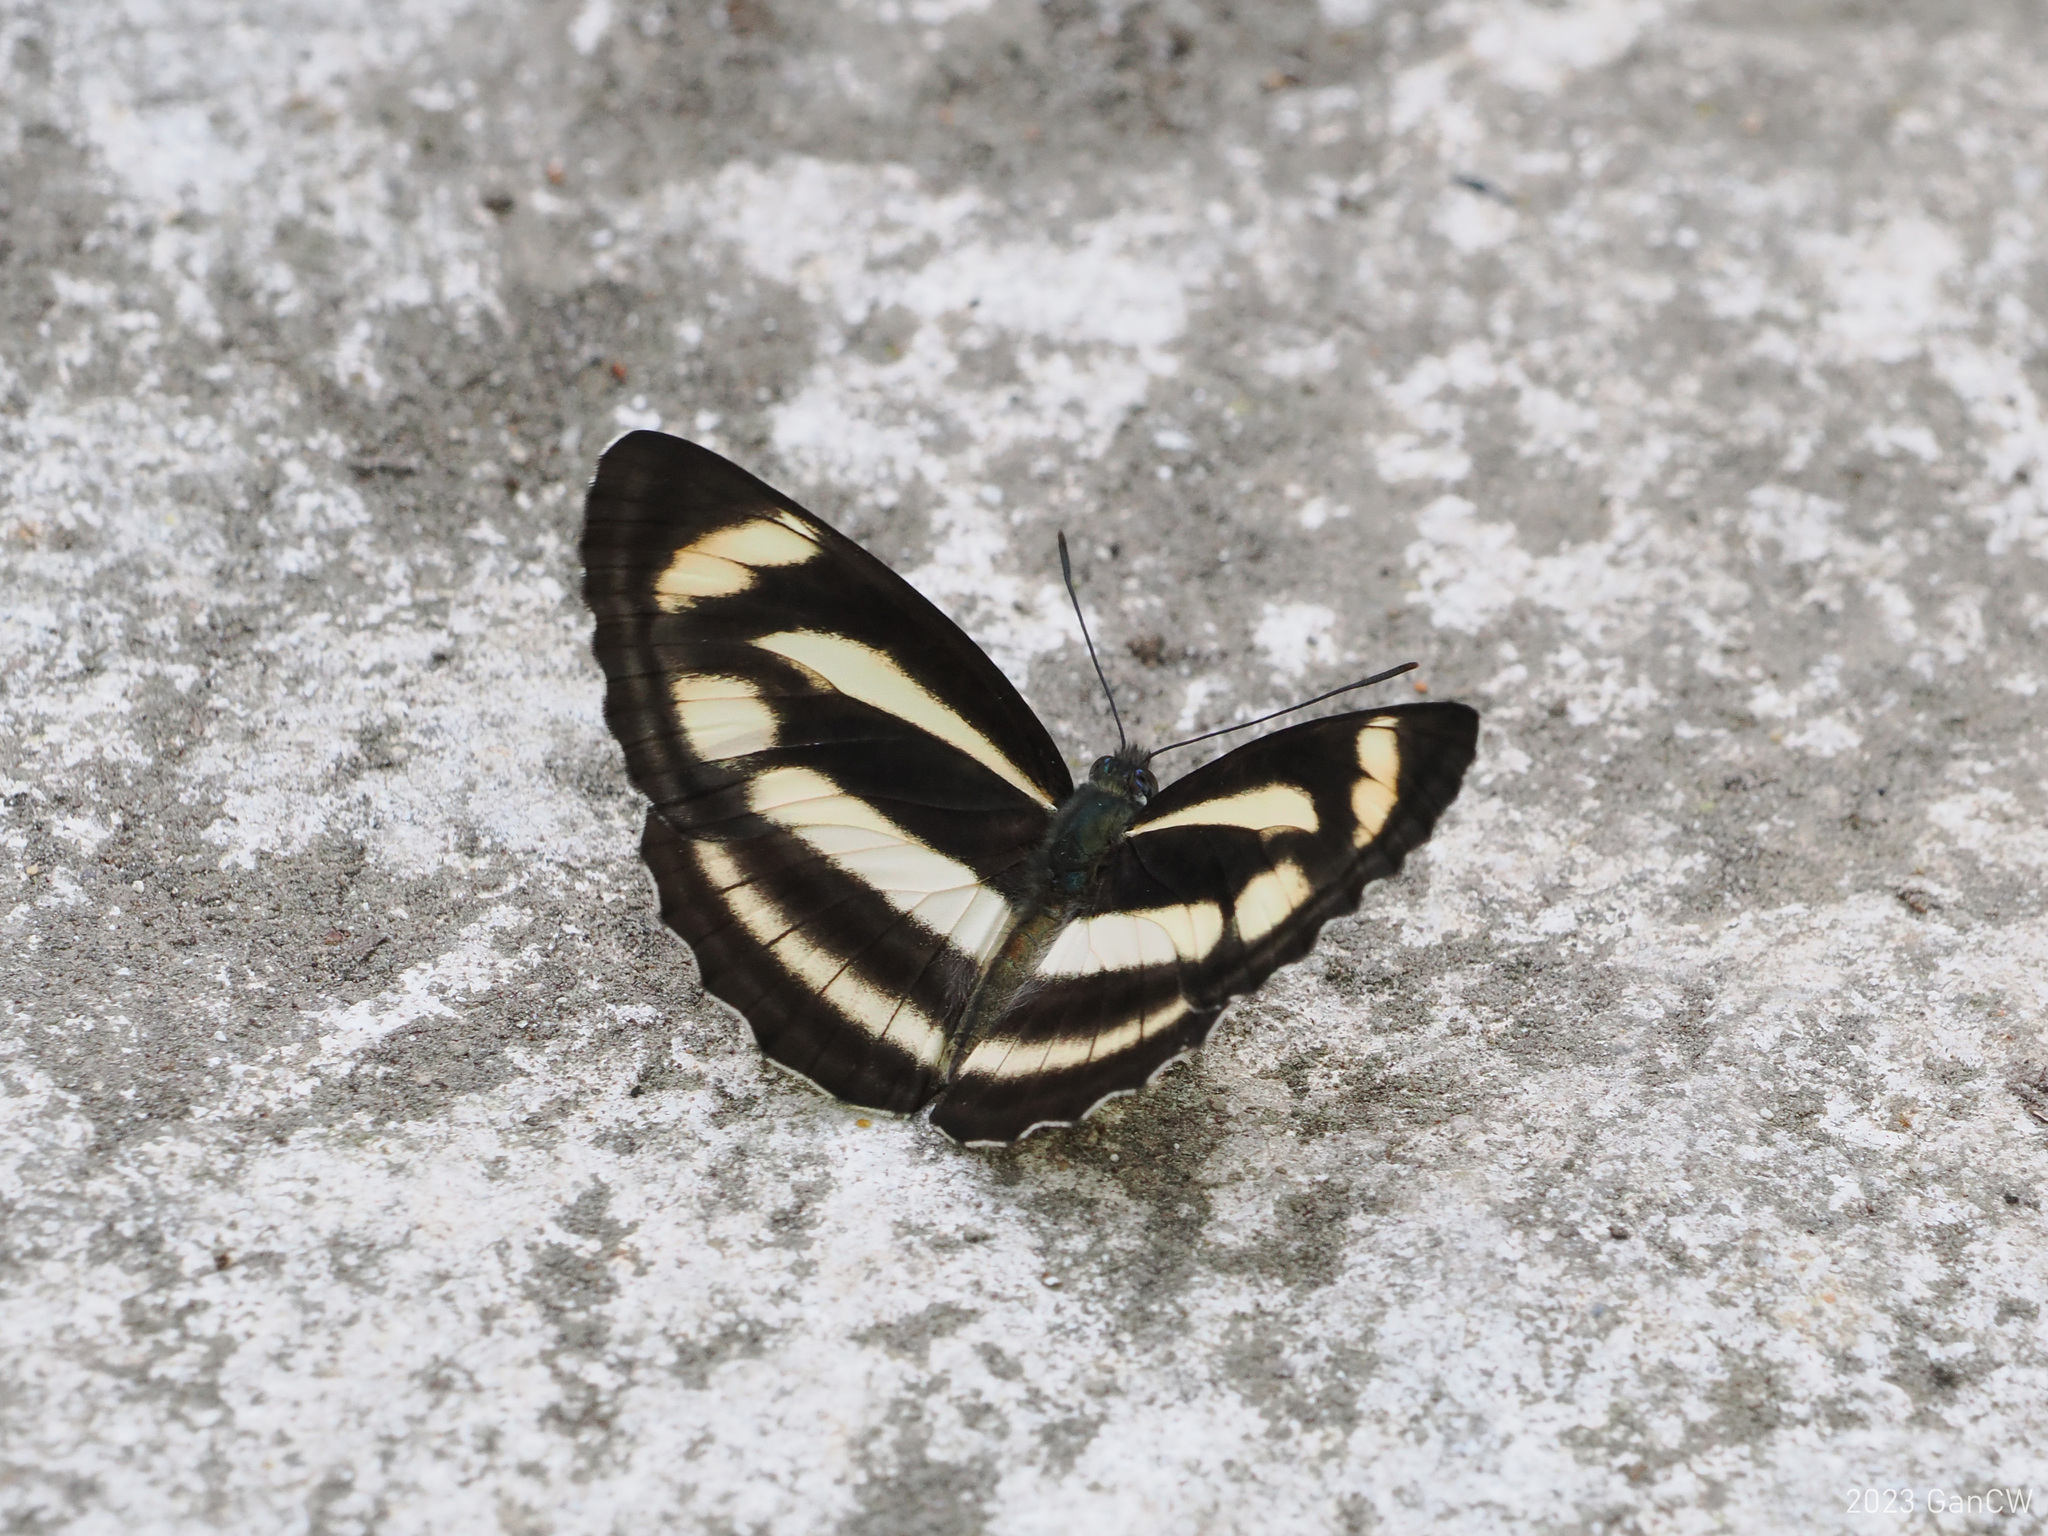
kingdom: Animalia
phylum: Arthropoda
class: Insecta
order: Lepidoptera
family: Nymphalidae
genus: Neptis
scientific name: Neptis zaida
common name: Variable sailor
